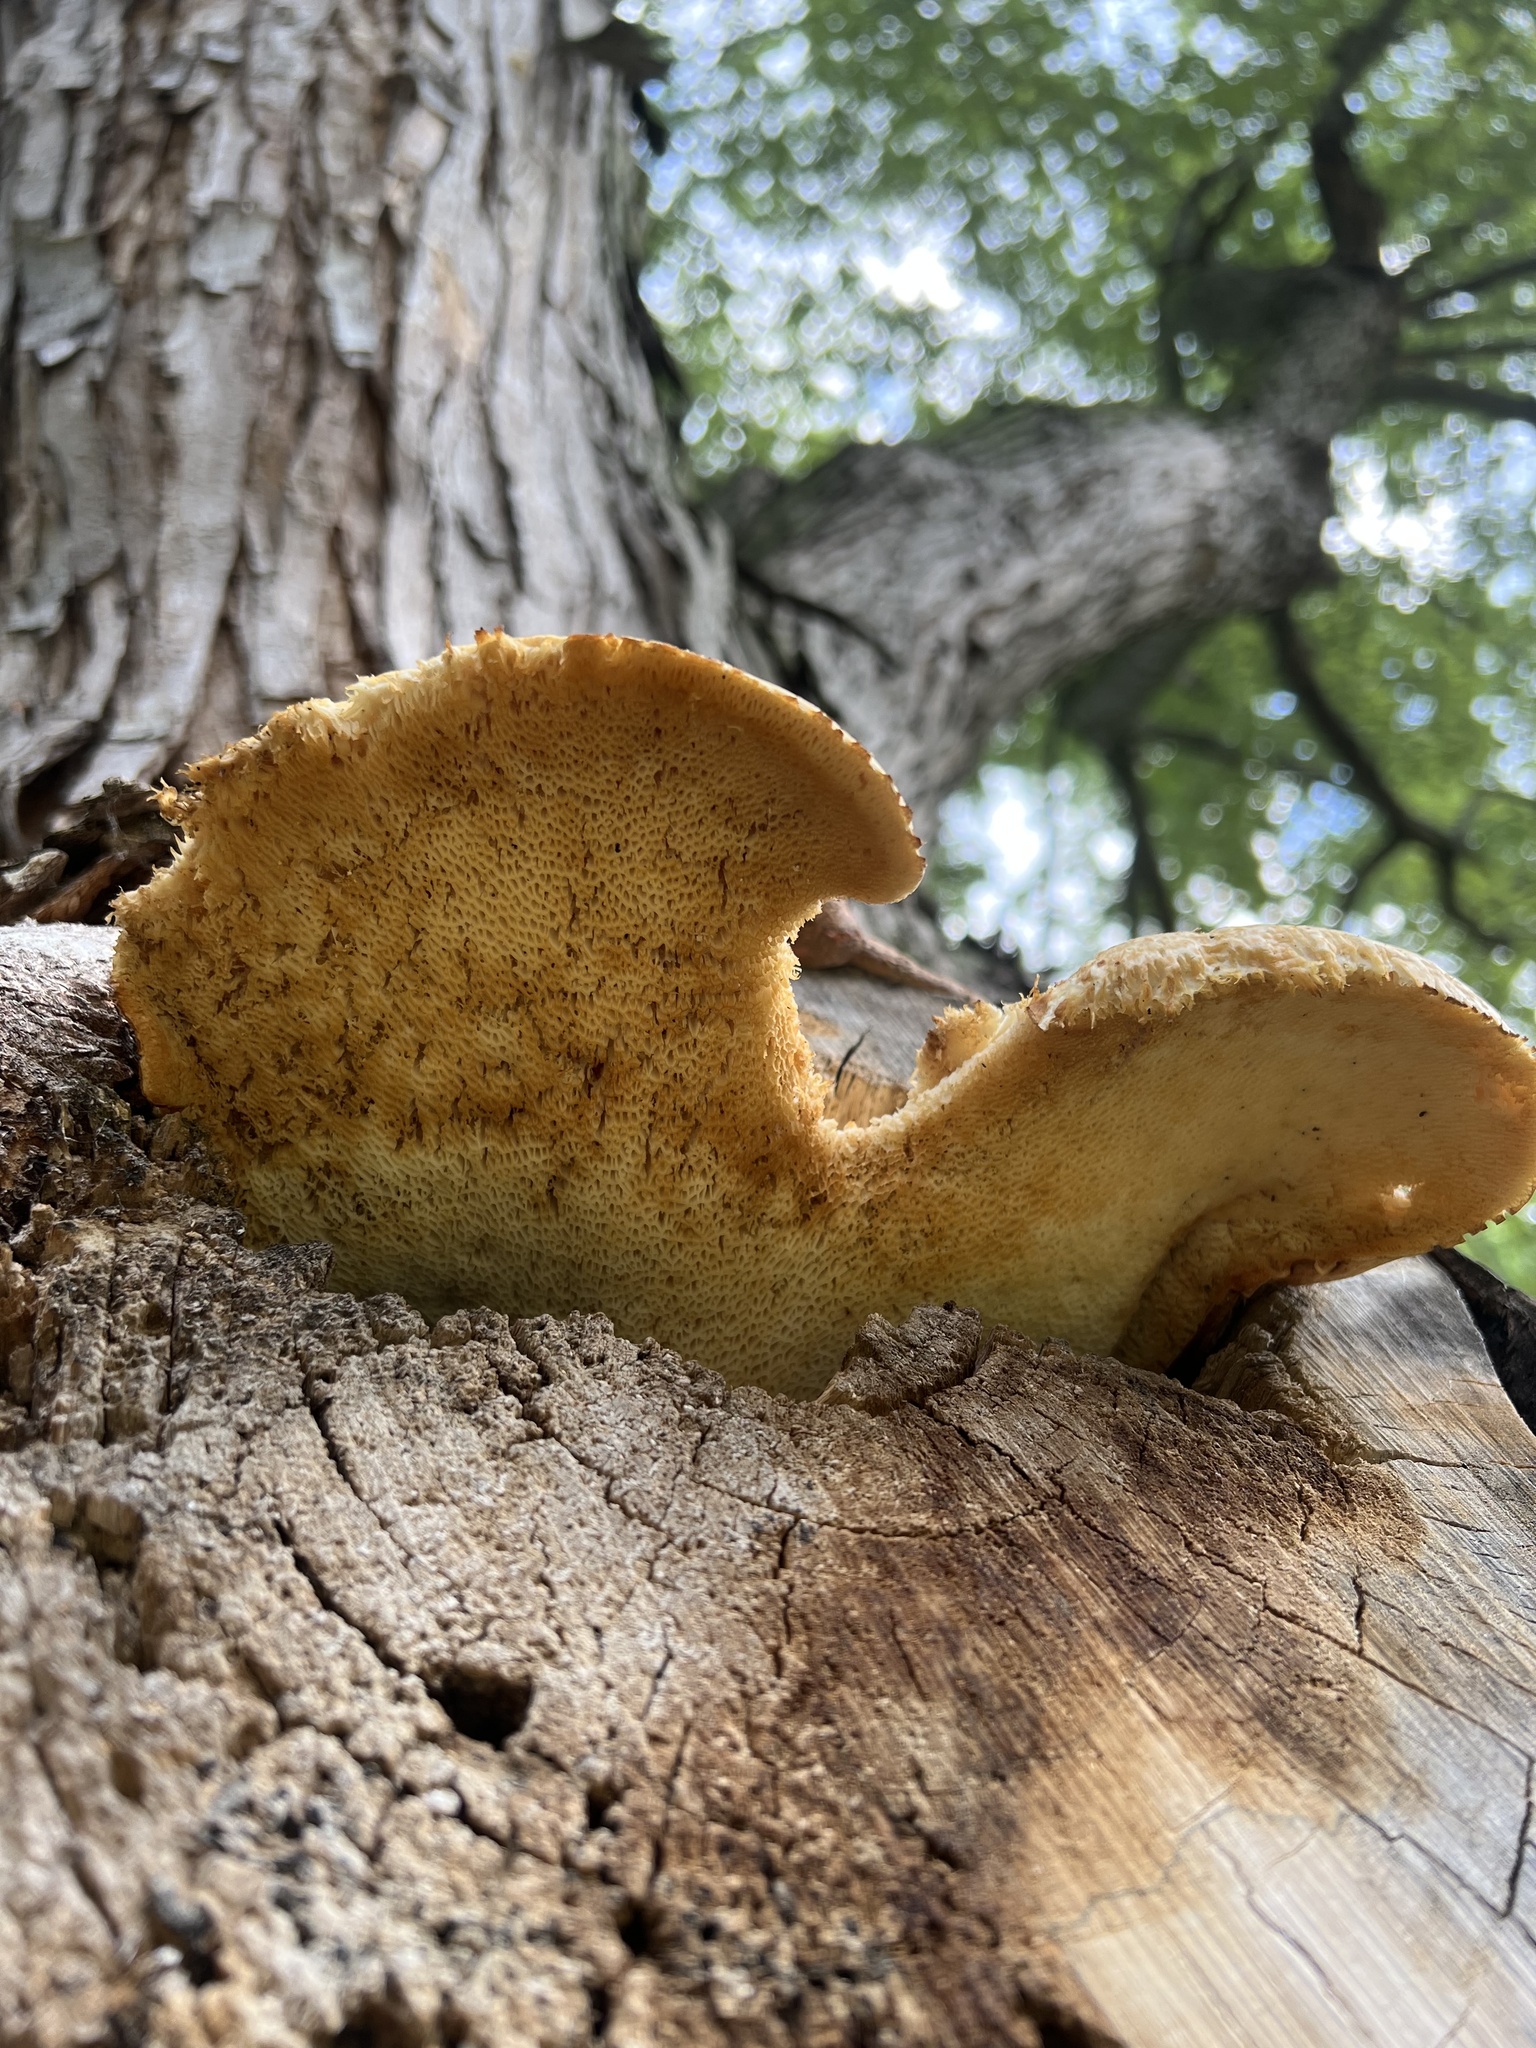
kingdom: Fungi
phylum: Basidiomycota
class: Agaricomycetes
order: Polyporales
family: Polyporaceae
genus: Cerioporus
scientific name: Cerioporus squamosus
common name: Dryad's saddle
